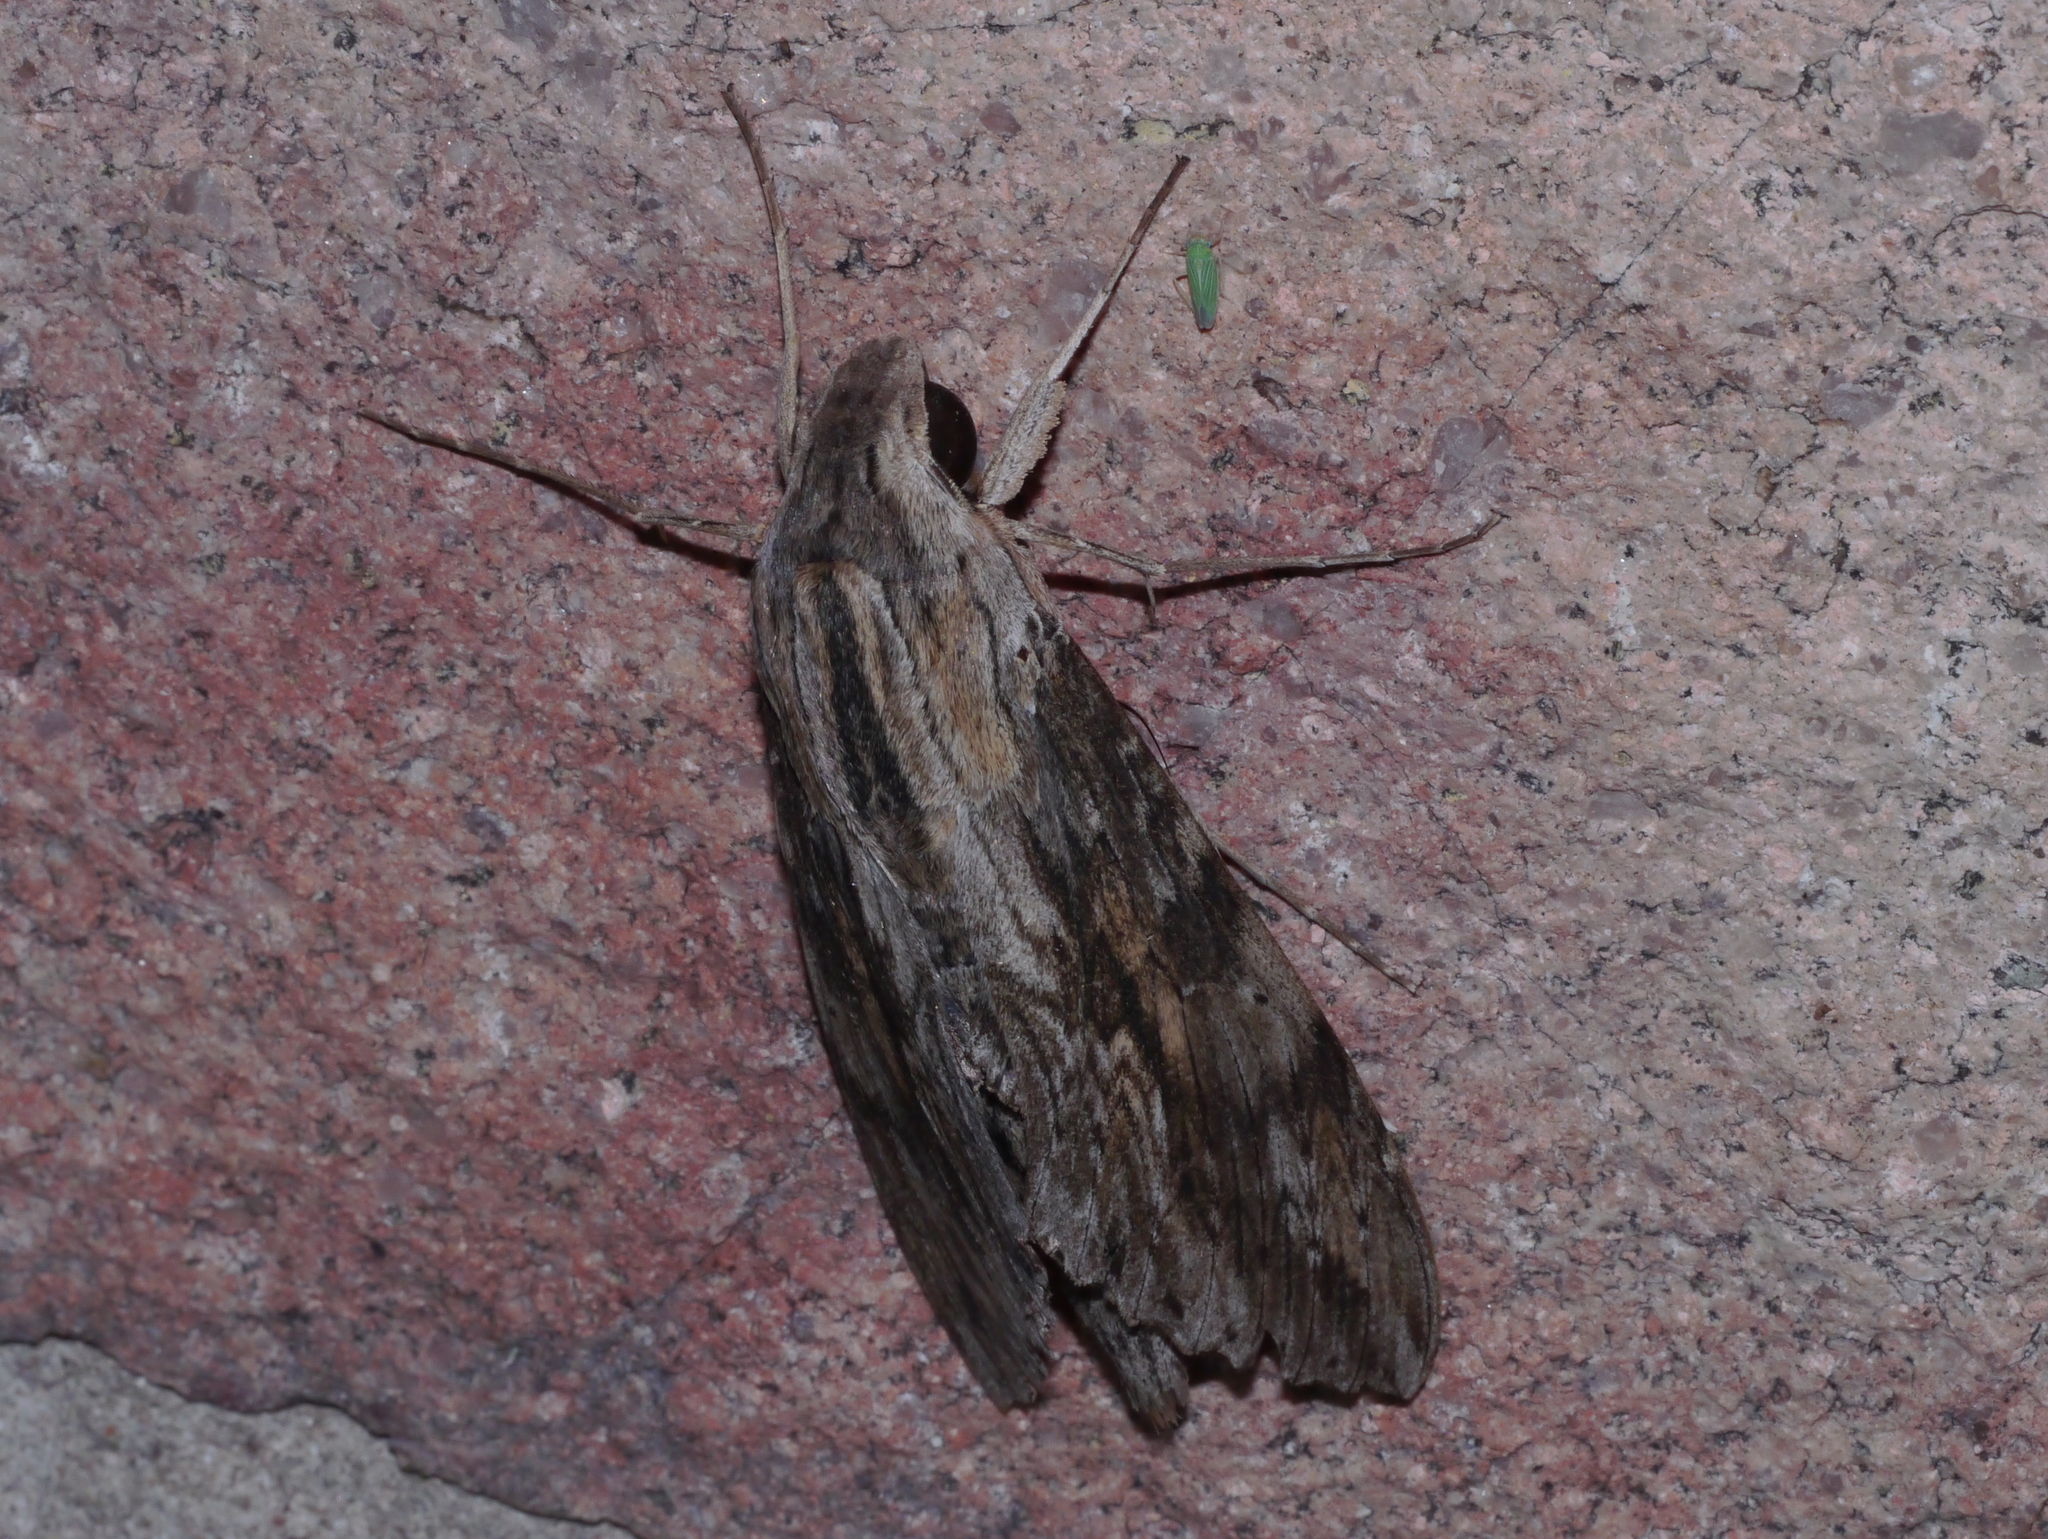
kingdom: Animalia
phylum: Arthropoda
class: Insecta
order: Lepidoptera
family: Sphingidae
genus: Erinnyis
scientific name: Erinnyis ello
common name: Ello sphinx
